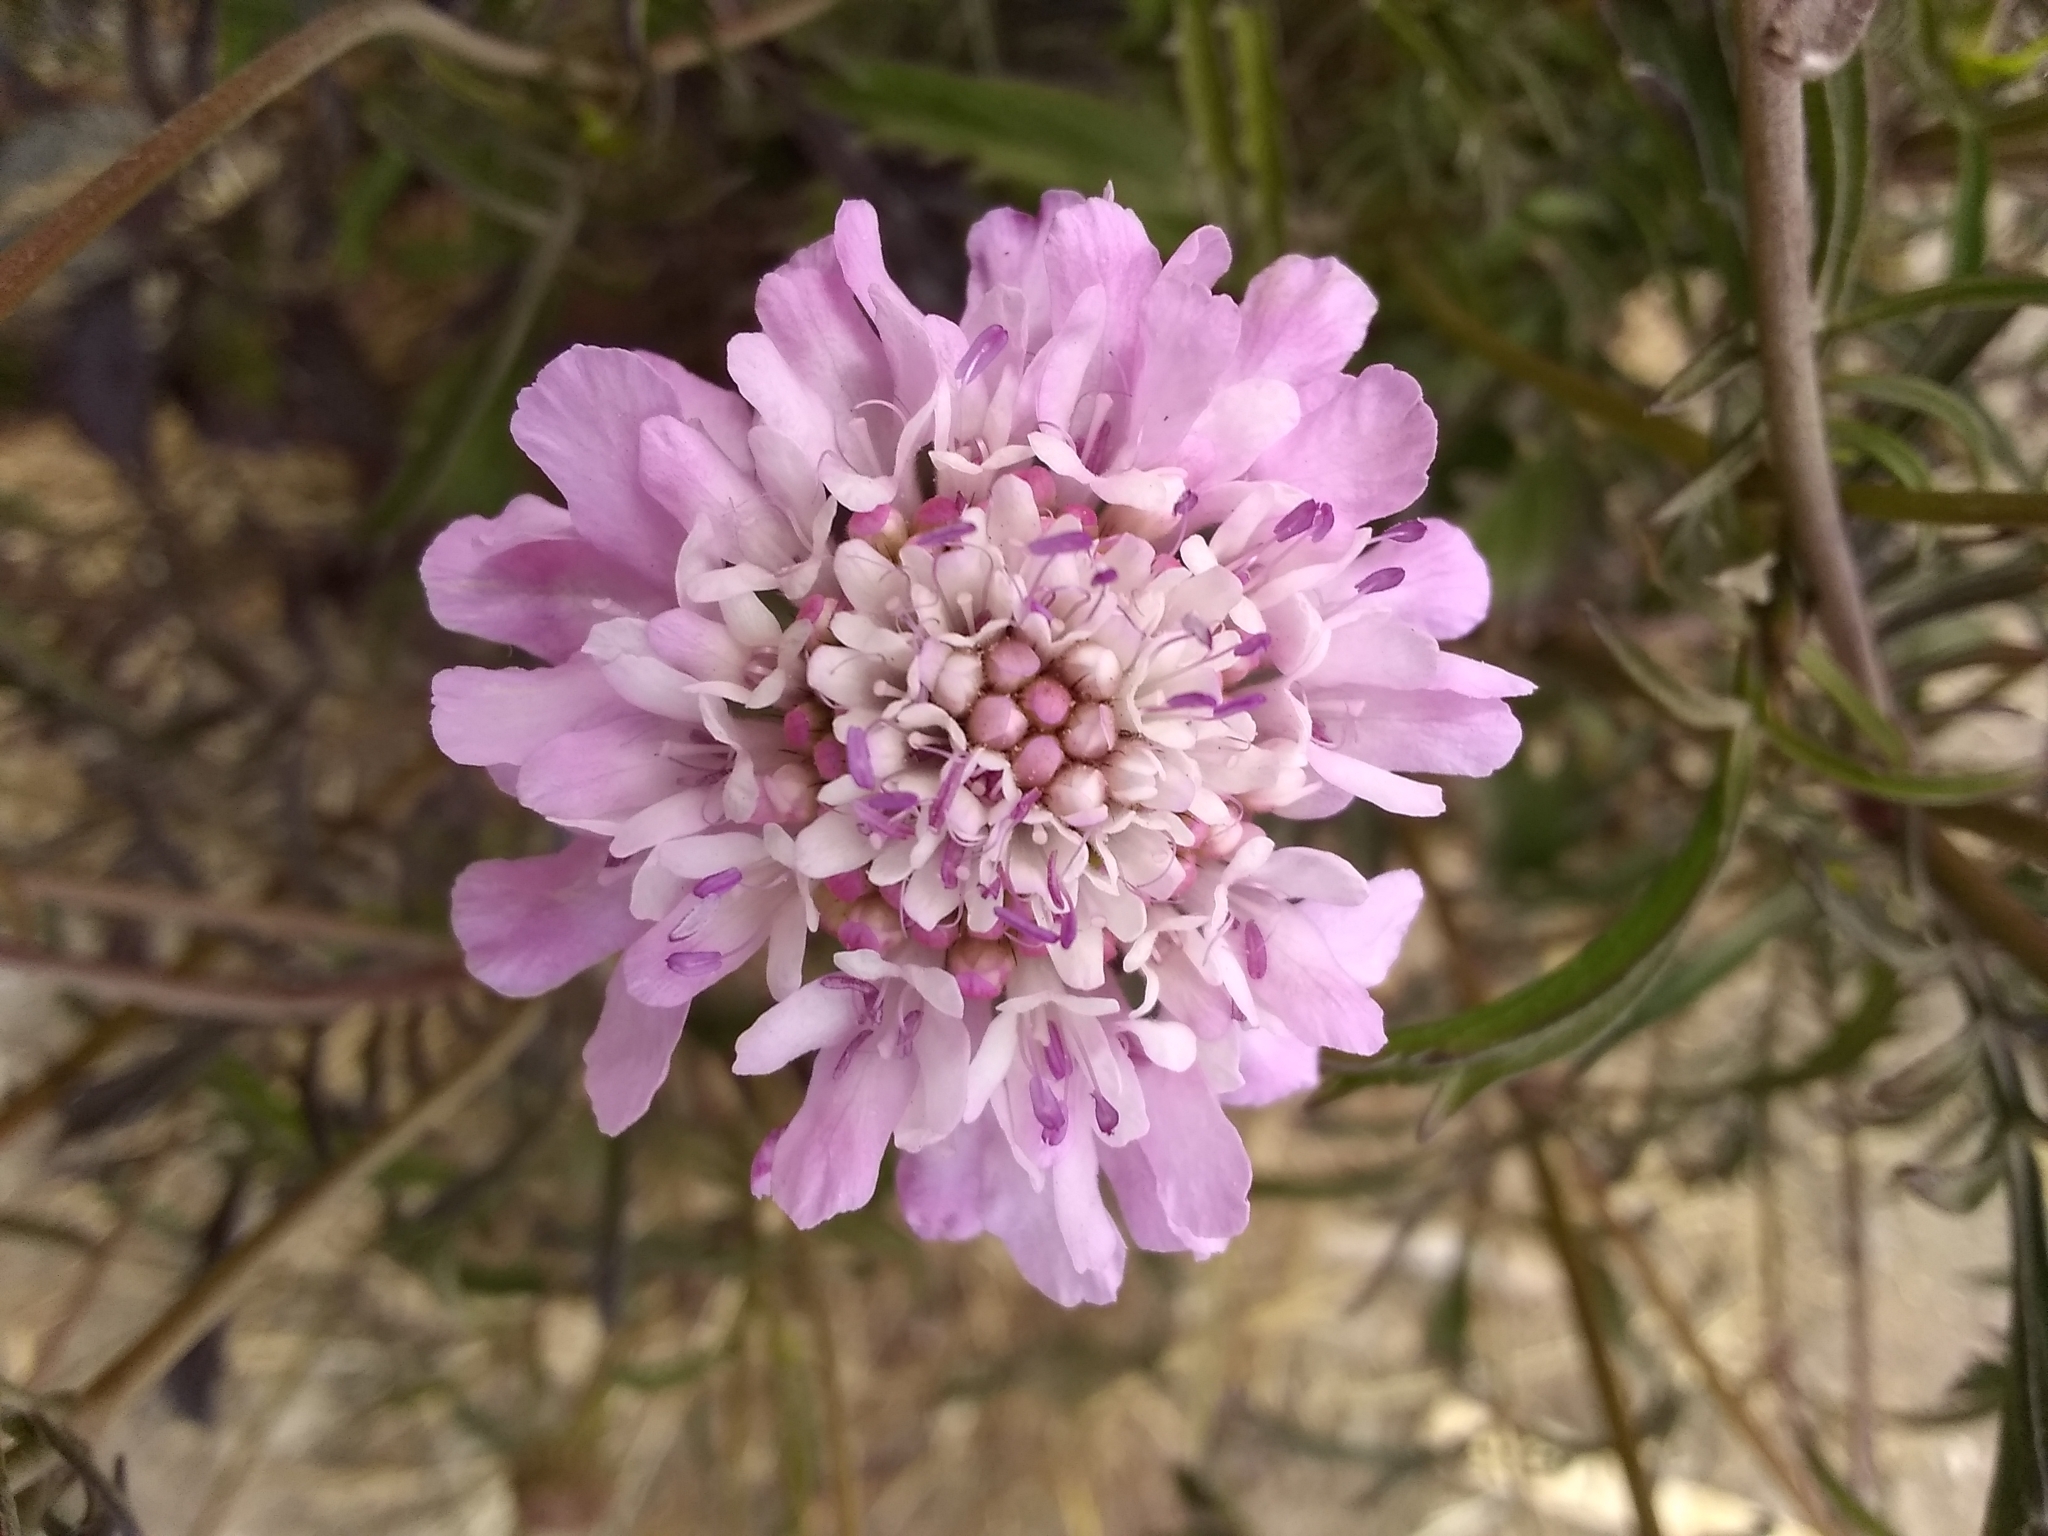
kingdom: Plantae
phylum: Tracheophyta
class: Magnoliopsida
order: Dipsacales
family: Caprifoliaceae
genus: Sixalix
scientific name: Sixalix atropurpurea
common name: Sweet scabious
